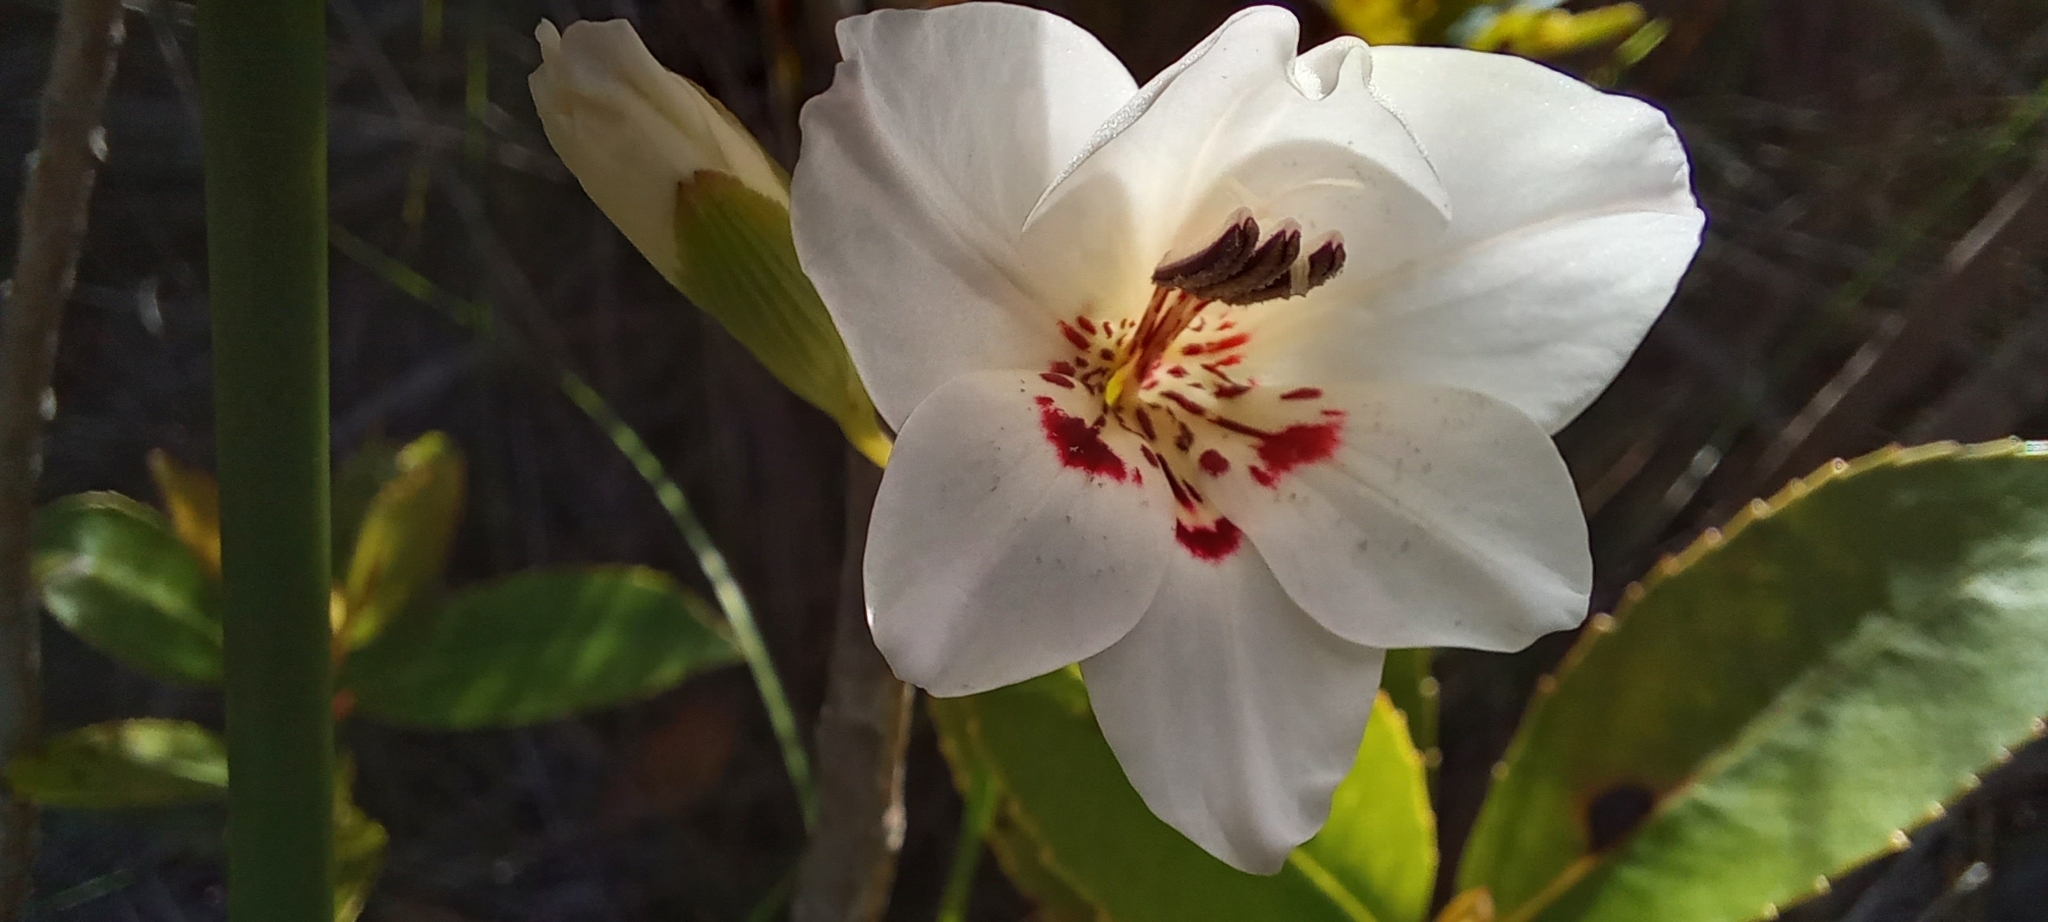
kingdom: Plantae
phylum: Tracheophyta
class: Liliopsida
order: Asparagales
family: Iridaceae
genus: Gladiolus
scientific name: Gladiolus debilis
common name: Painted-lady
